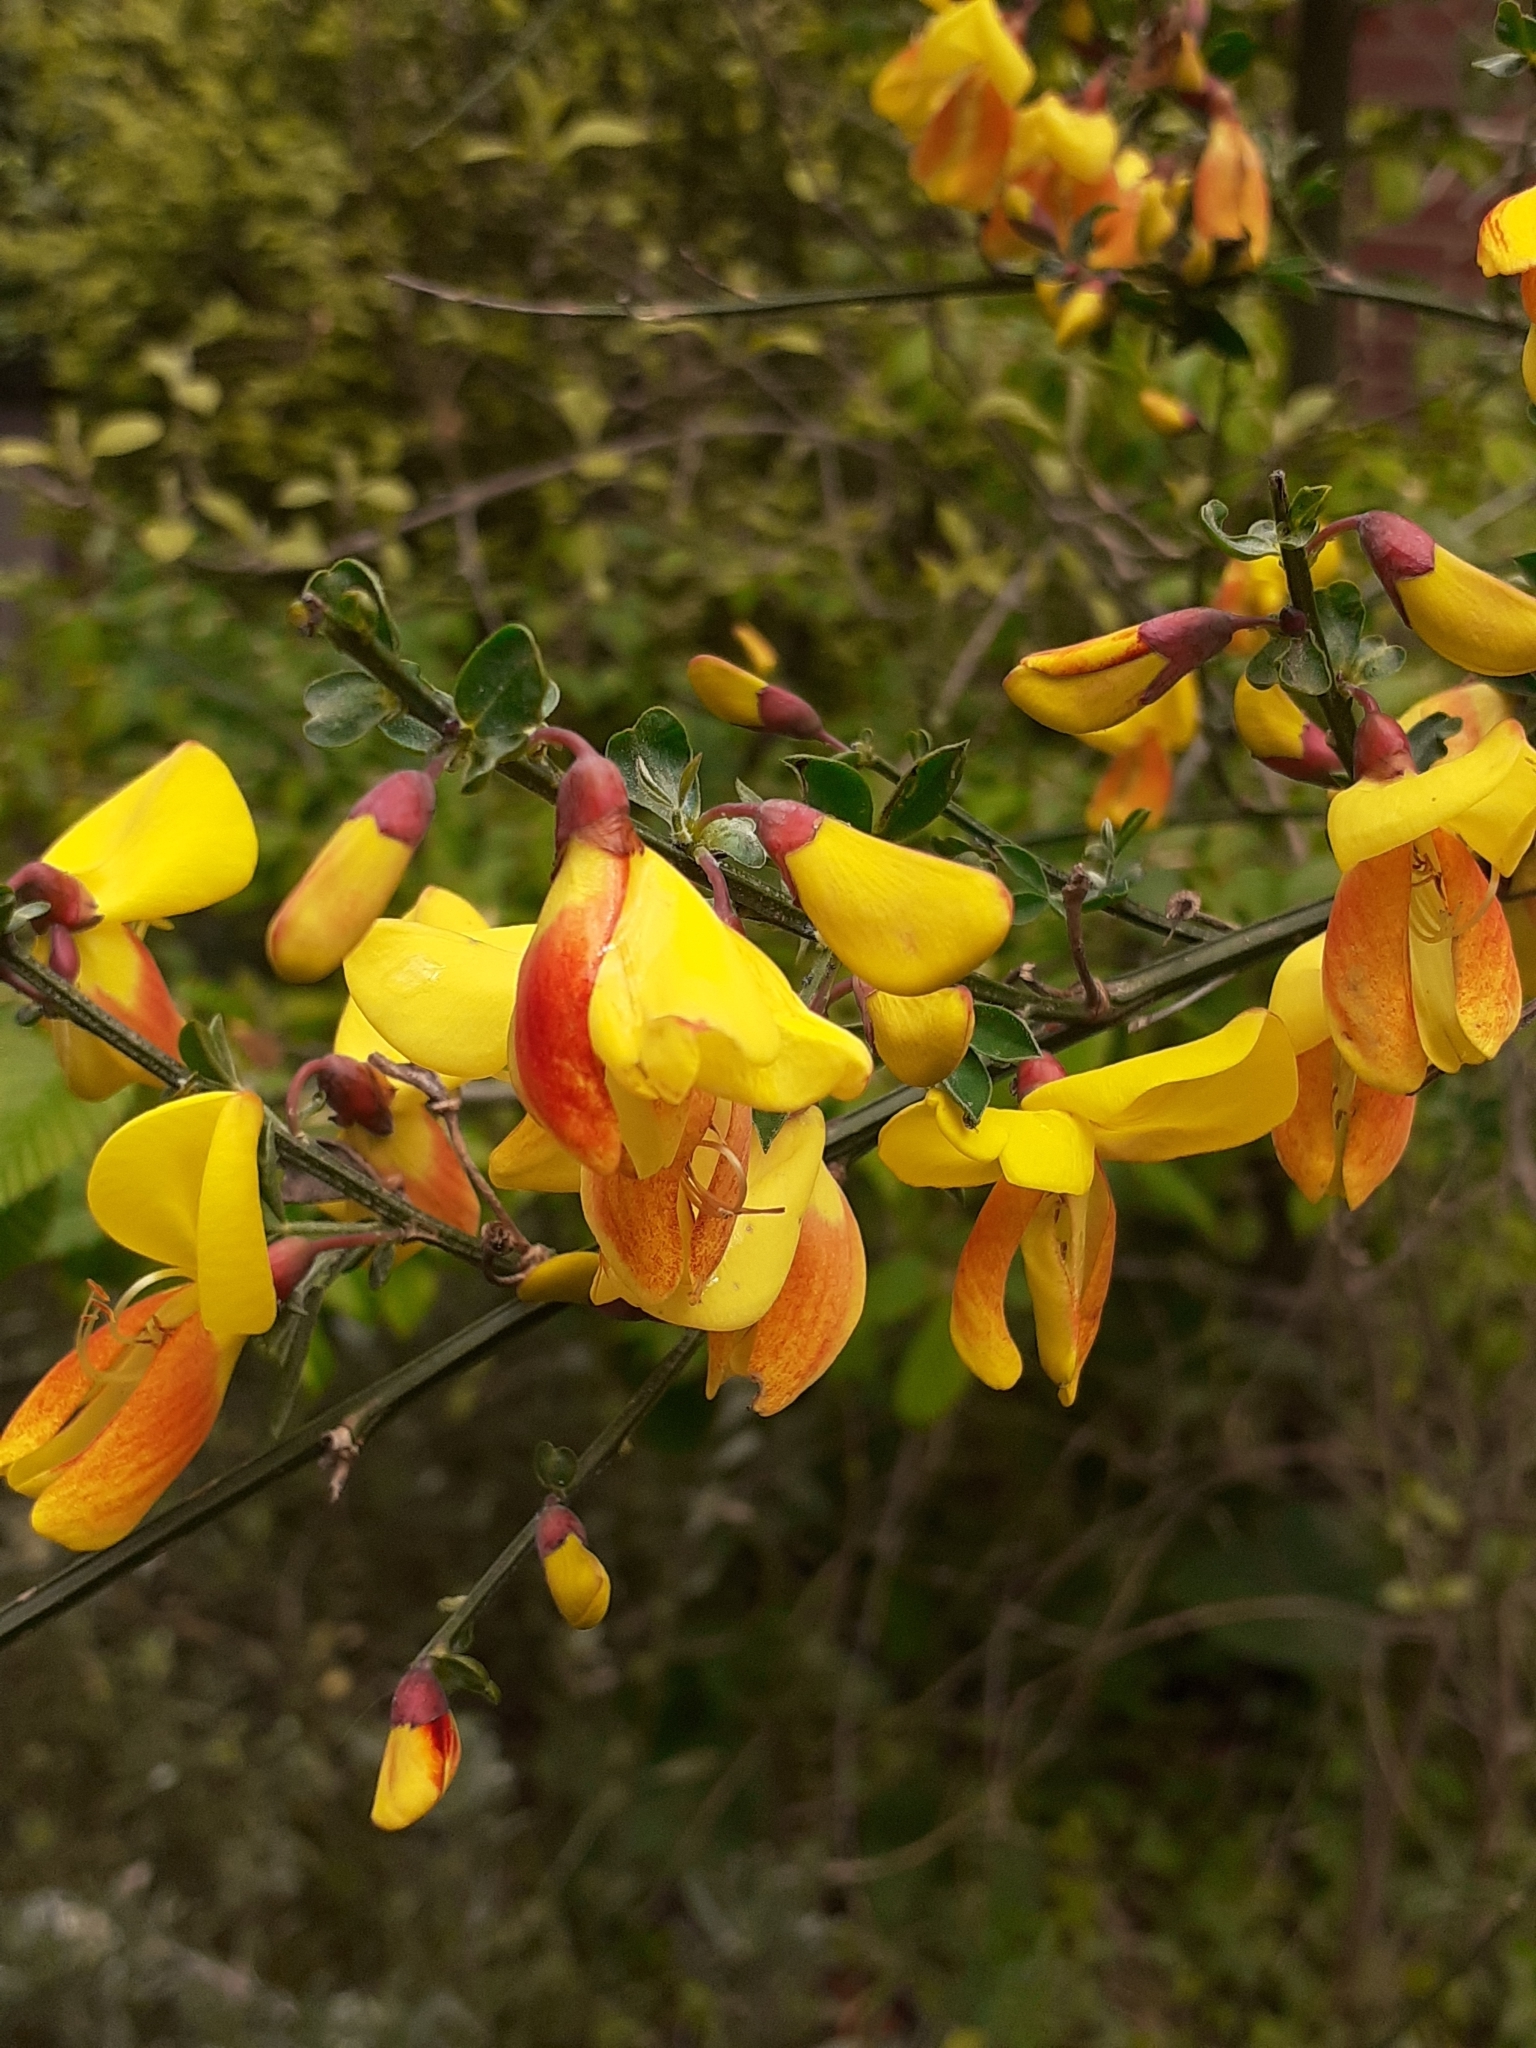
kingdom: Plantae
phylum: Tracheophyta
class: Magnoliopsida
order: Fabales
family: Fabaceae
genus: Cytisus
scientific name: Cytisus scoparius
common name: Scotch broom
